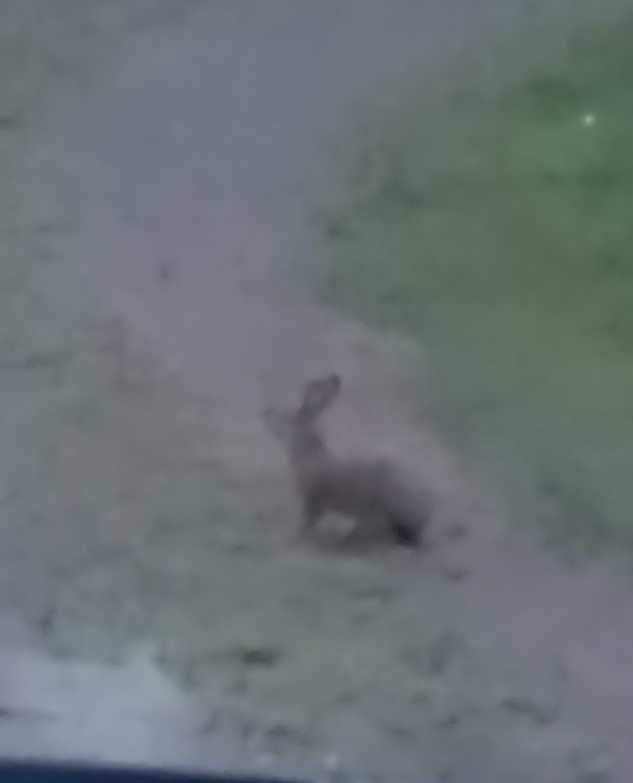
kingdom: Animalia
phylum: Chordata
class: Mammalia
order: Lagomorpha
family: Leporidae
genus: Lepus
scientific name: Lepus americanus
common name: Snowshoe hare
